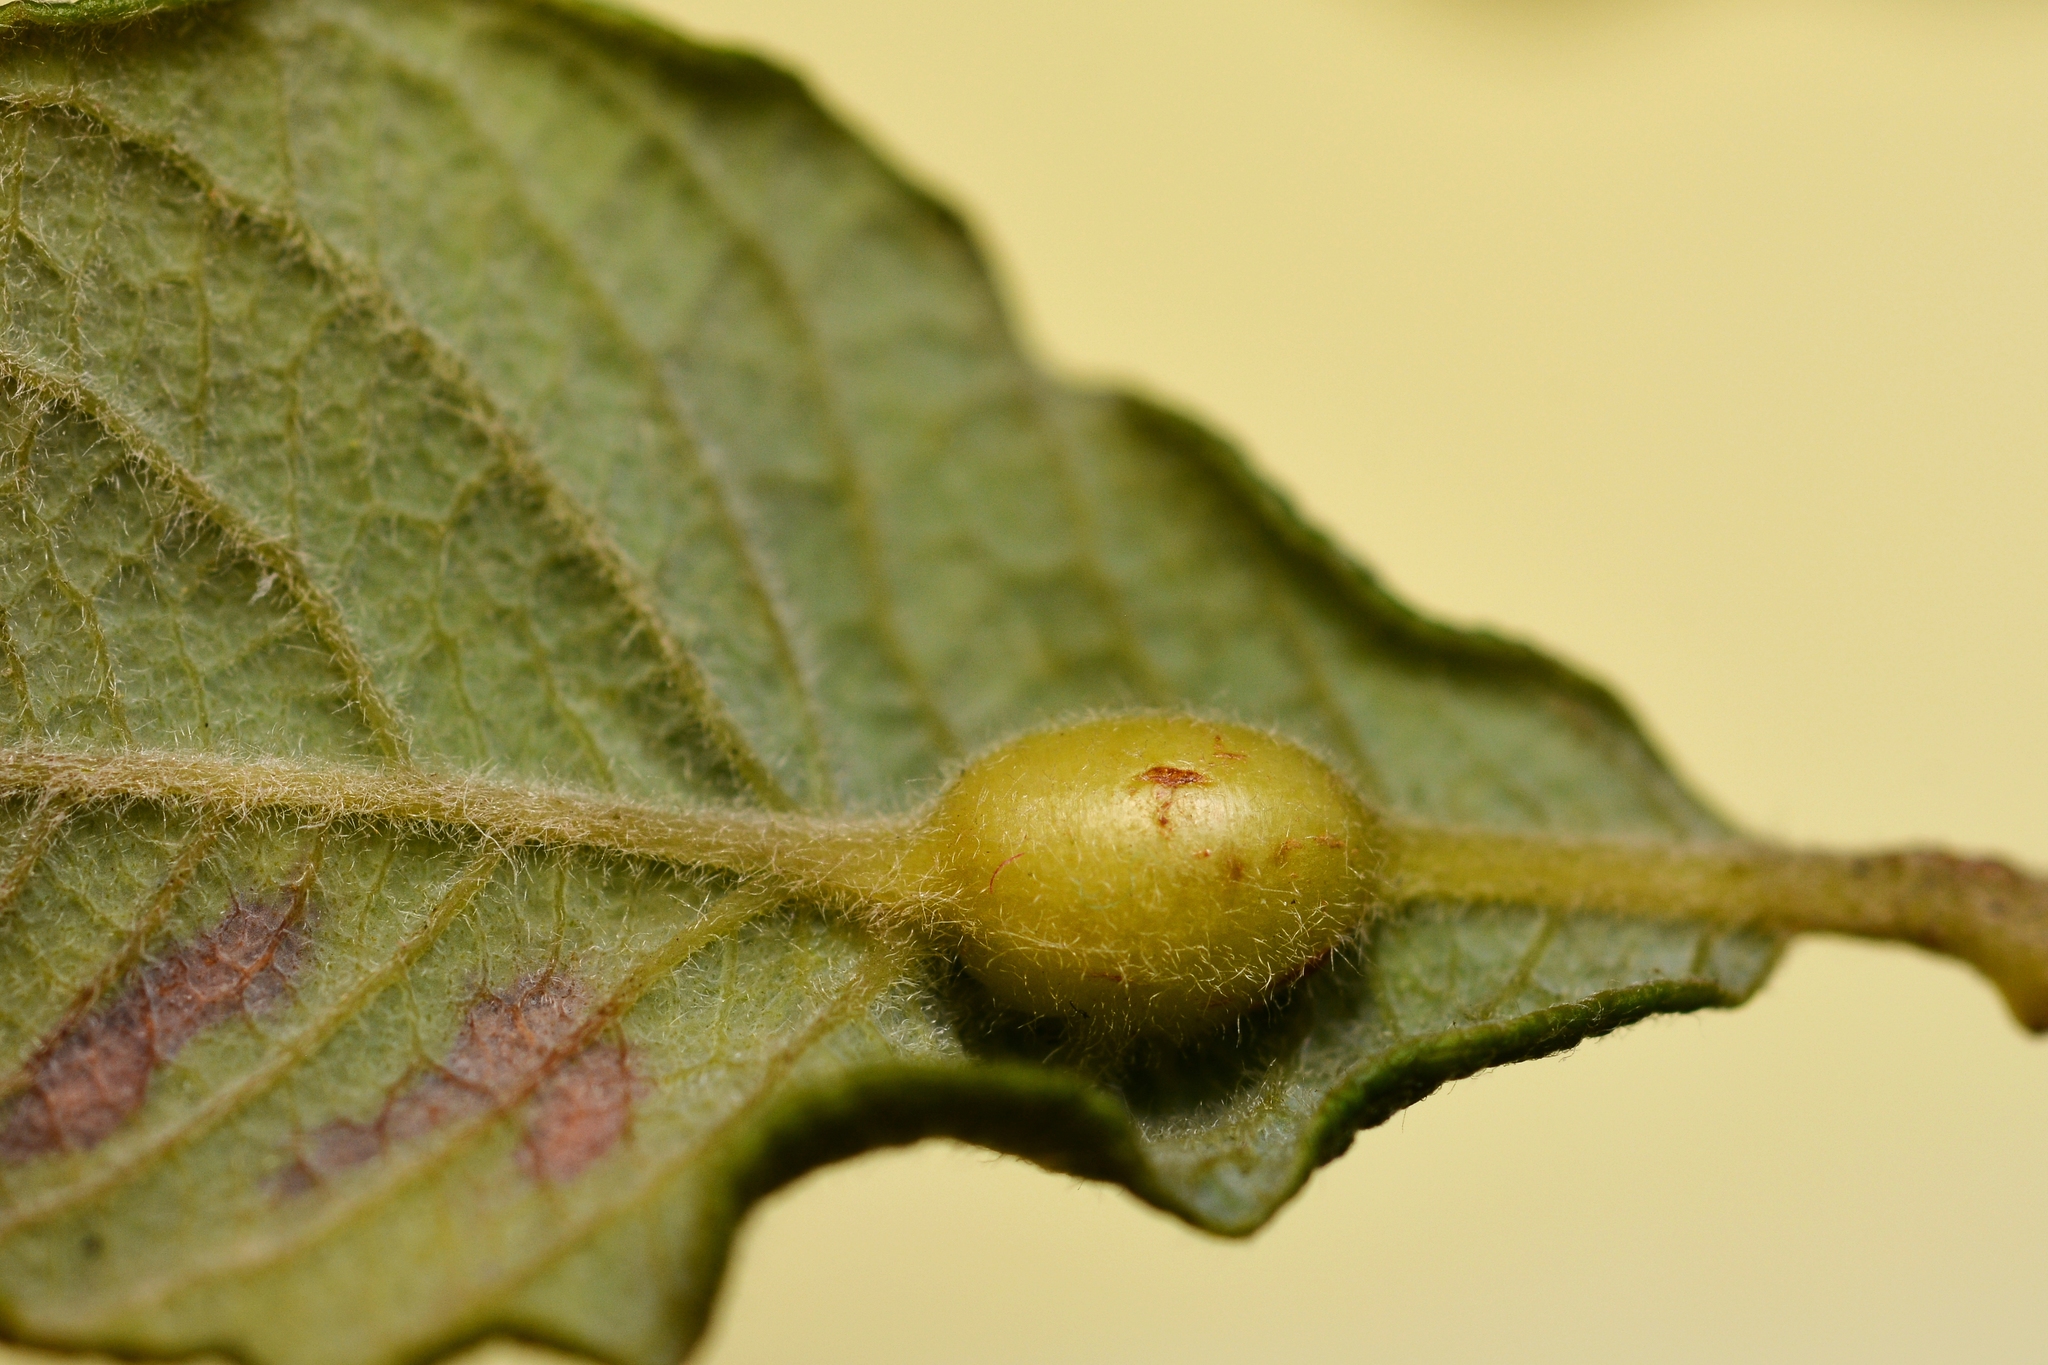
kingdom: Animalia
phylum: Arthropoda
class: Insecta
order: Diptera
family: Cecidomyiidae
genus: Rabdophaga
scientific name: Rabdophaga salicis
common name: Willow twig gall midge
